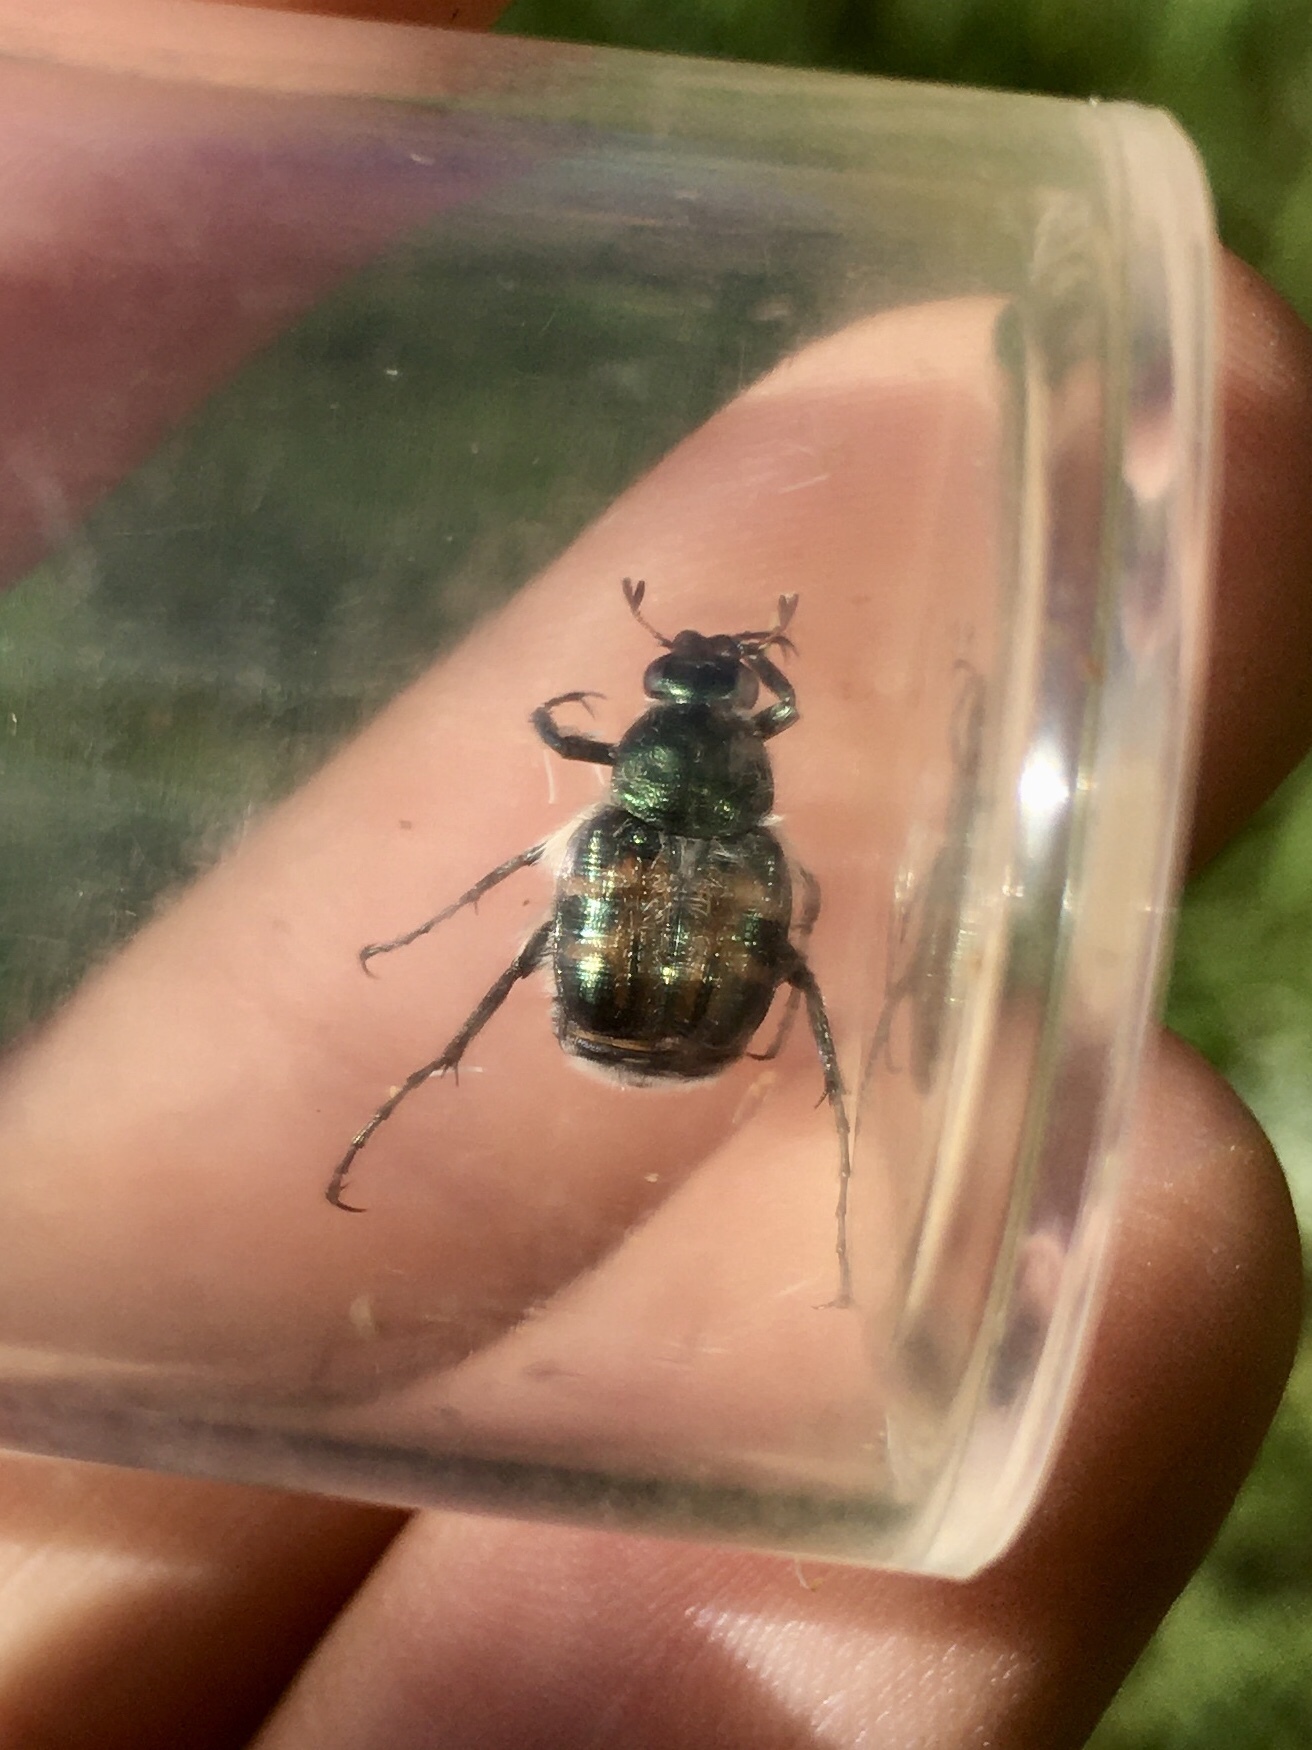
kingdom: Animalia
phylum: Arthropoda
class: Insecta
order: Coleoptera
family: Scarabaeidae
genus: Trichiotinus
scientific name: Trichiotinus viridans
